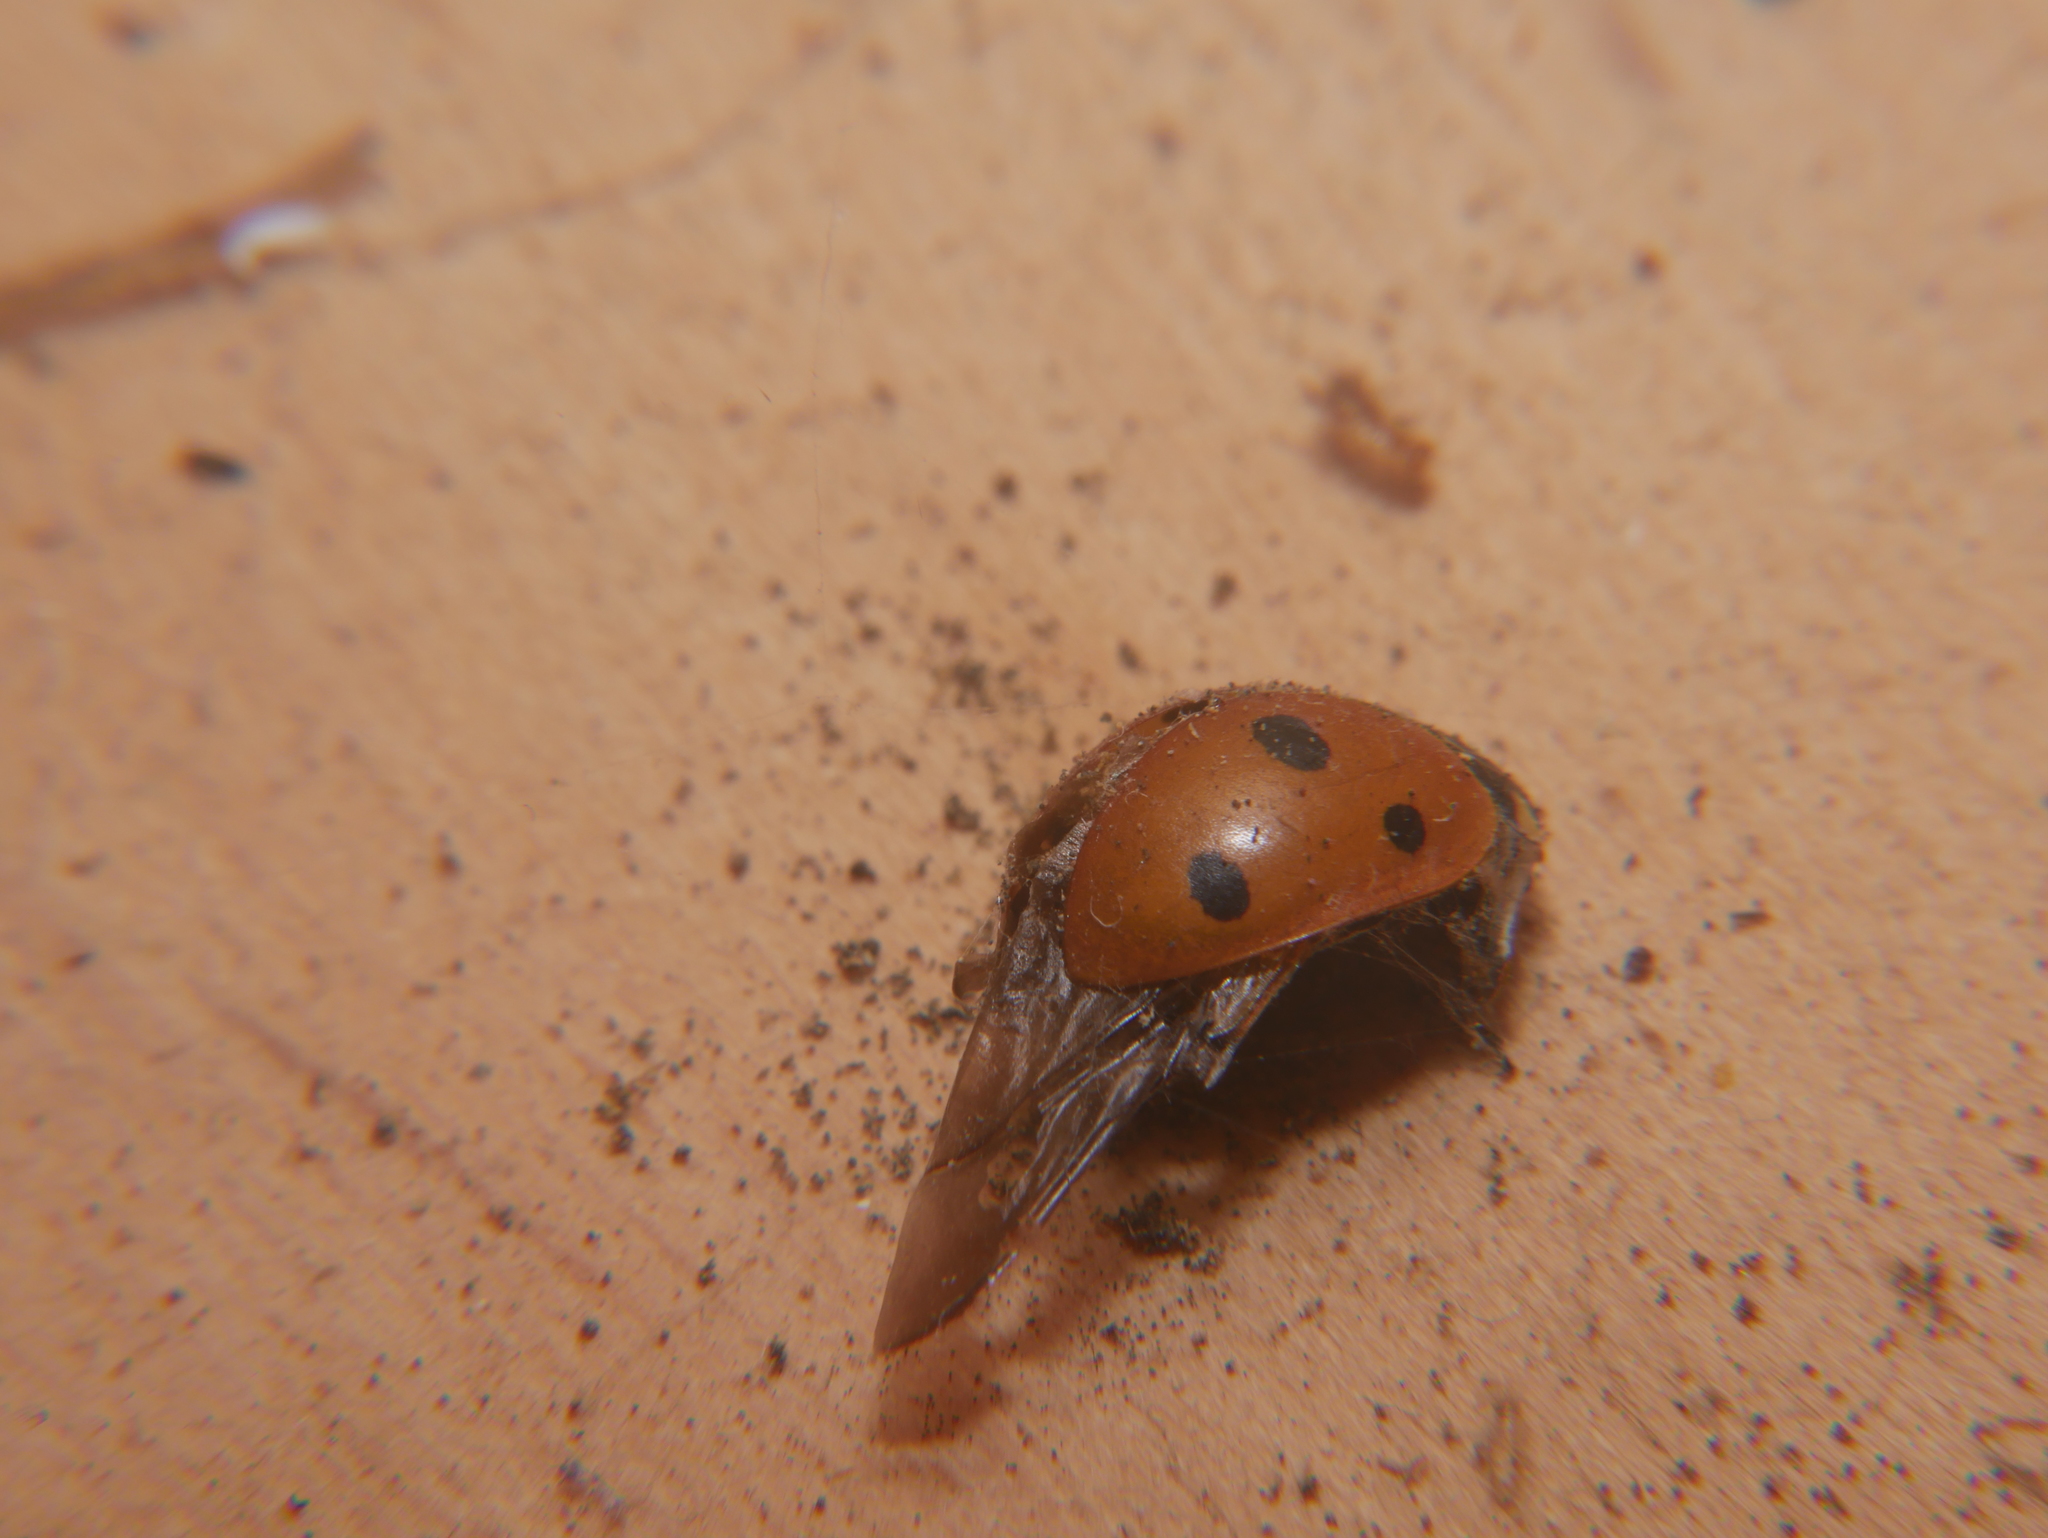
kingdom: Animalia
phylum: Arthropoda
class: Insecta
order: Coleoptera
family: Coccinellidae
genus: Coccinella
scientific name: Coccinella septempunctata
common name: Sevenspotted lady beetle
